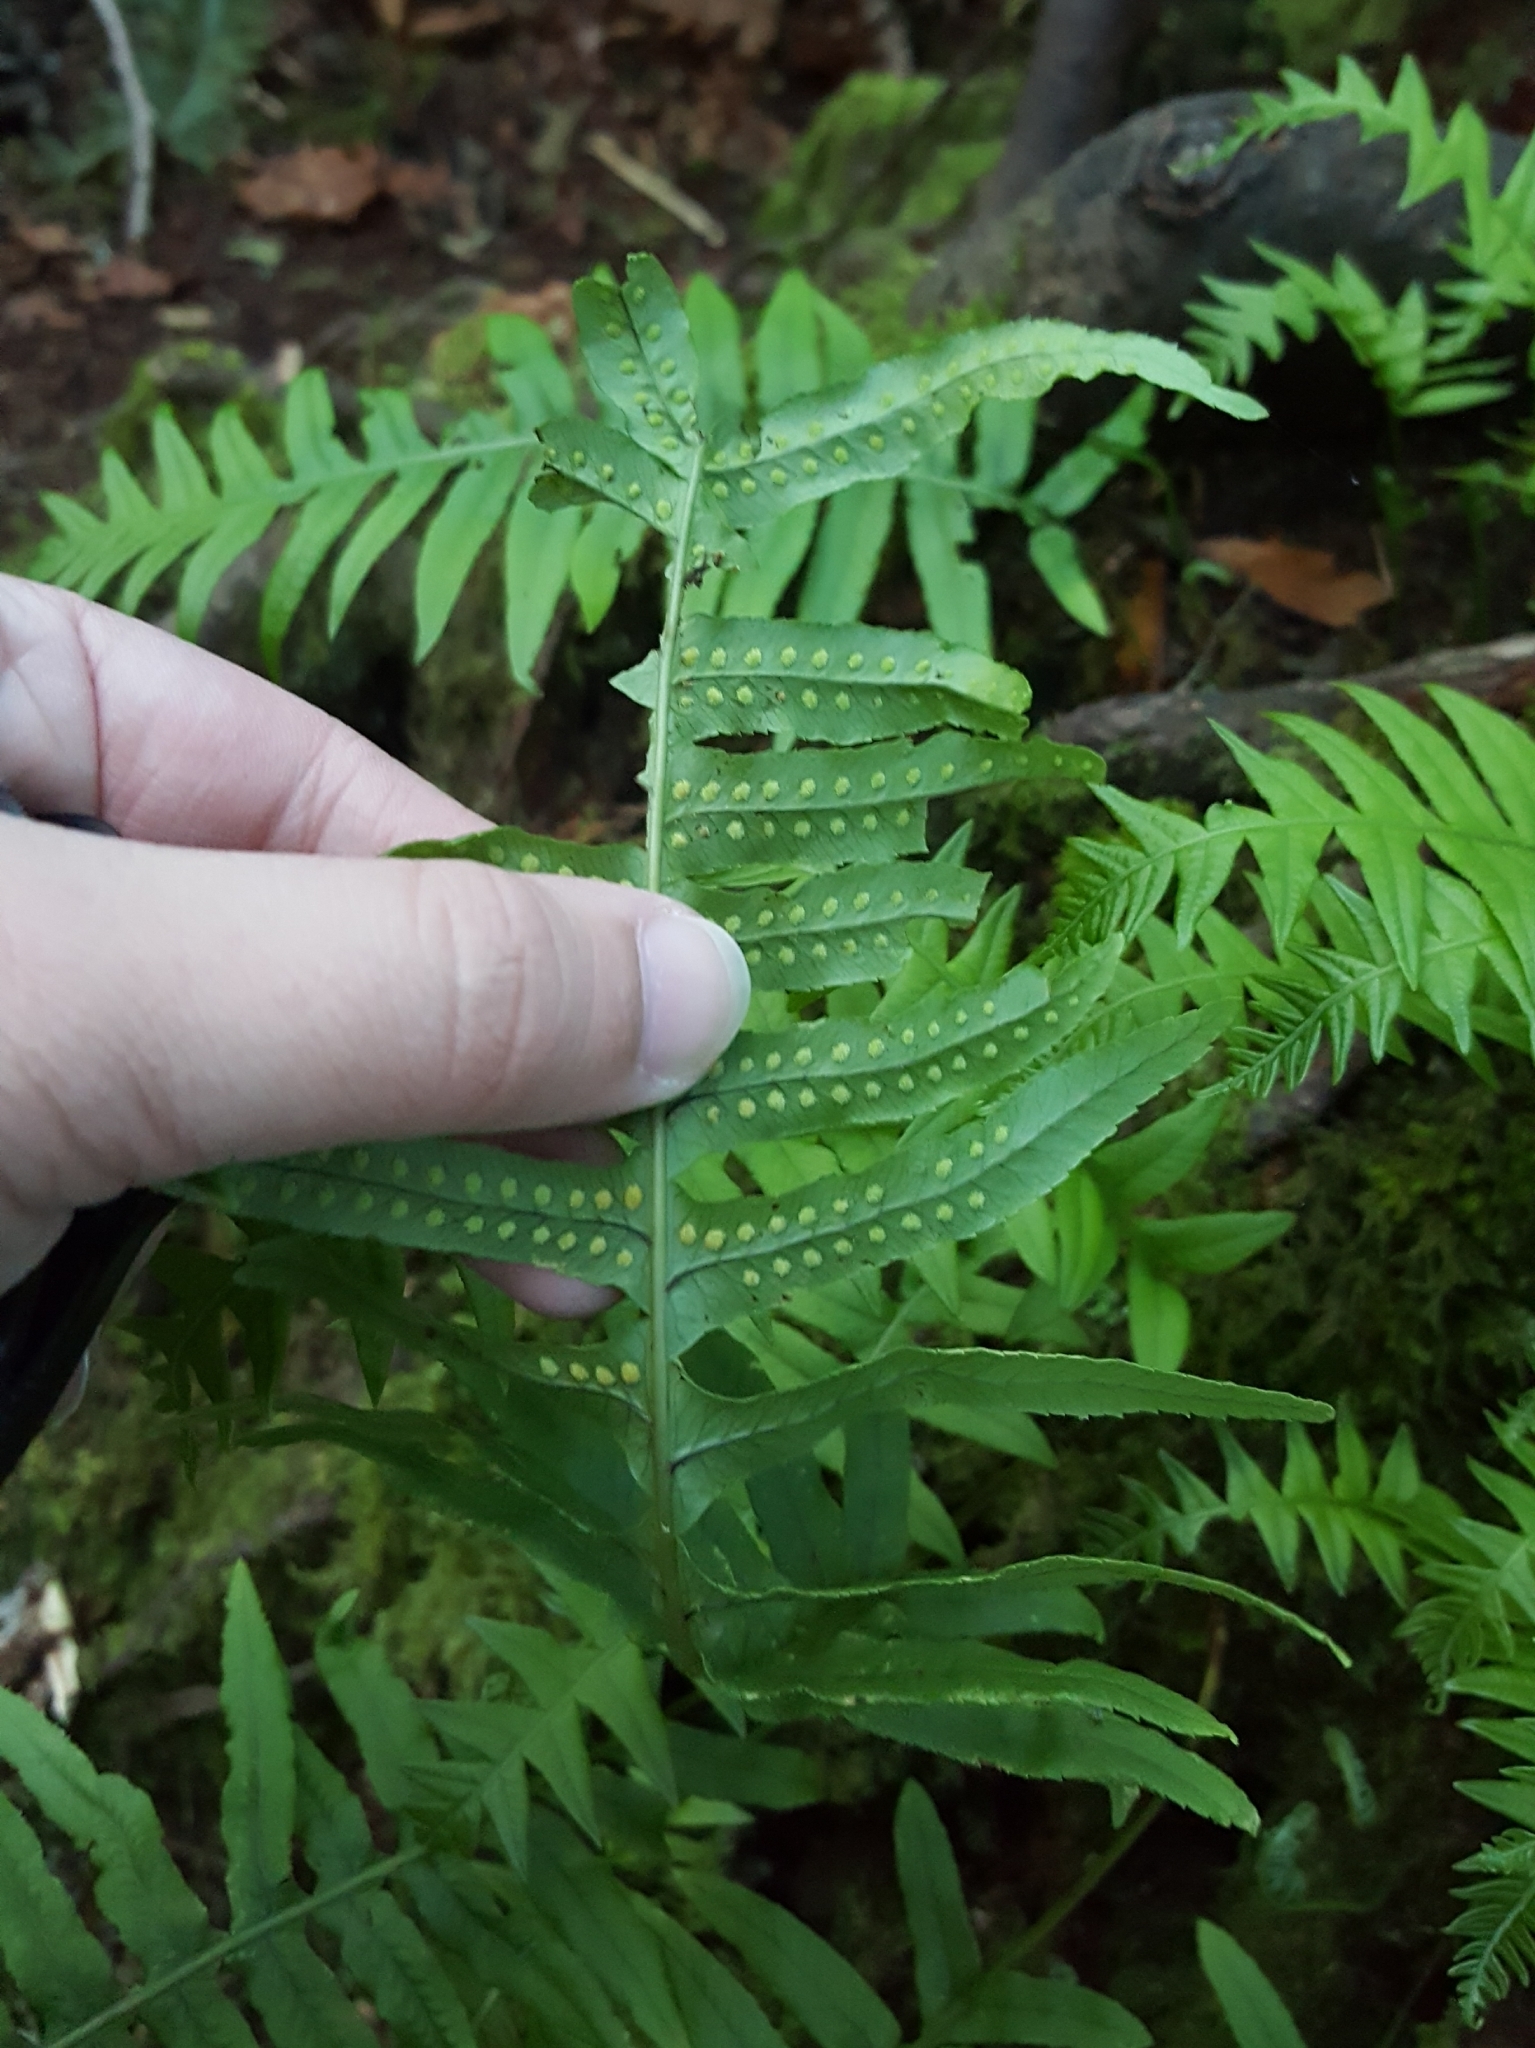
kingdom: Plantae
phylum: Tracheophyta
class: Polypodiopsida
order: Polypodiales
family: Polypodiaceae
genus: Polypodium
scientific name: Polypodium glycyrrhiza
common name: Licorice fern
